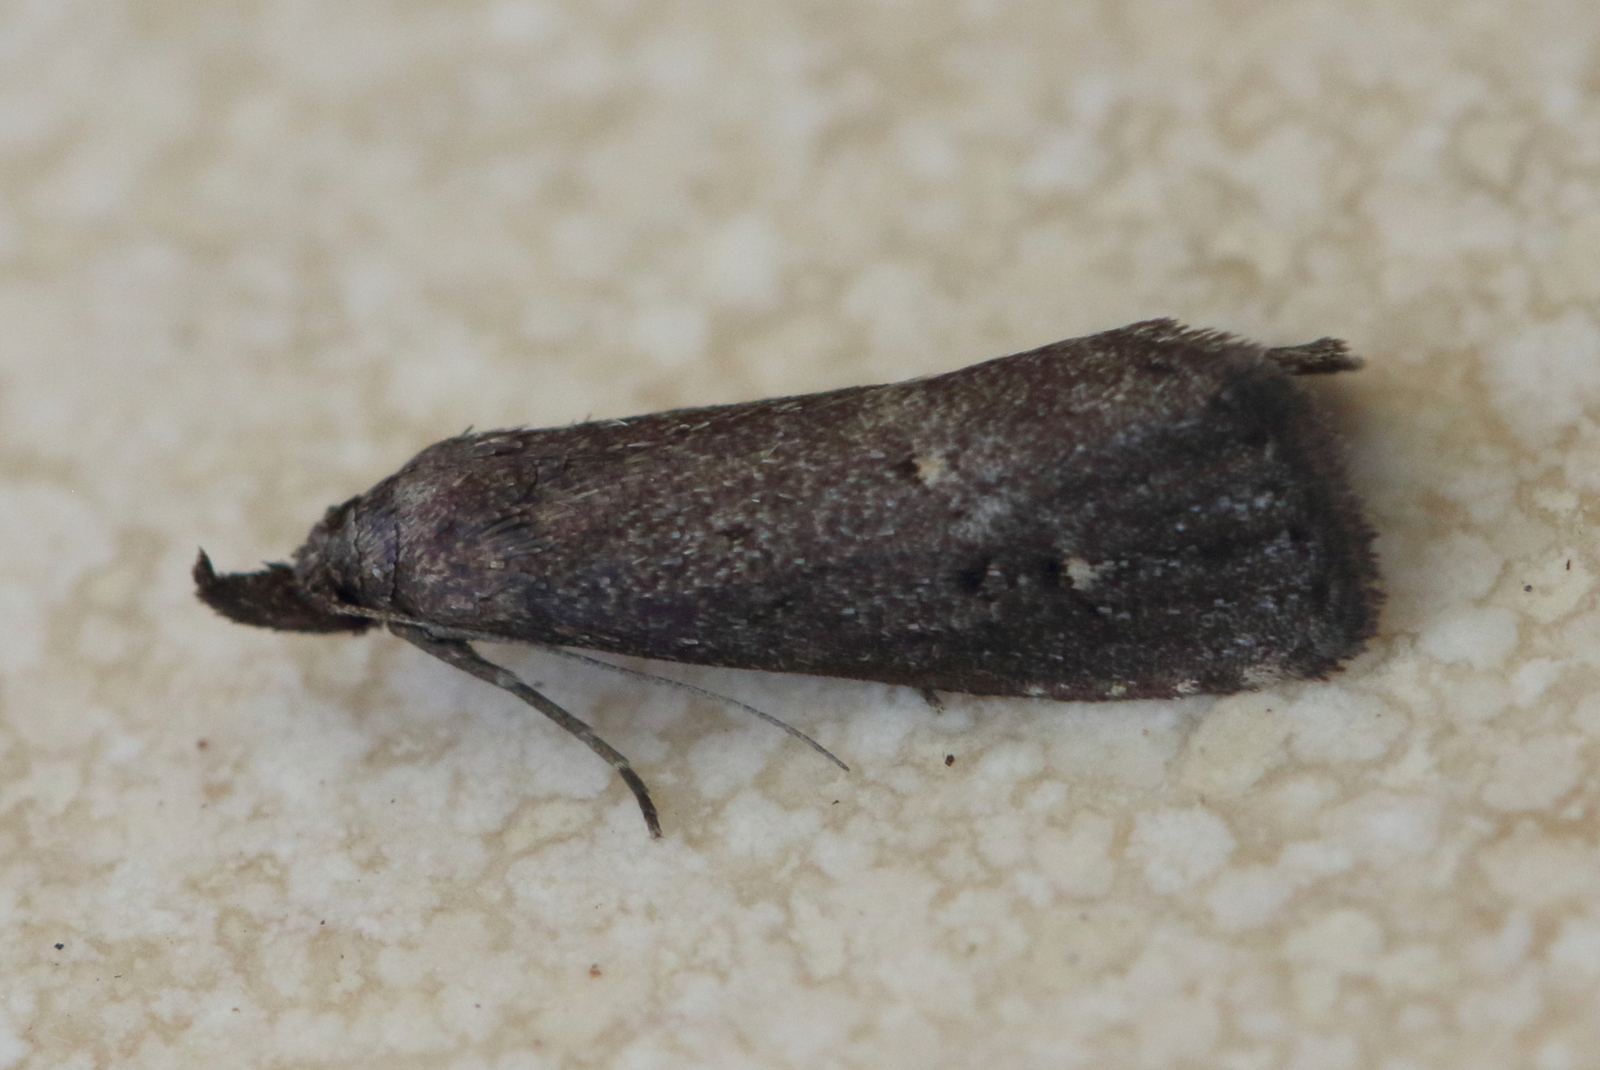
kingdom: Animalia
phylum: Arthropoda
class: Insecta
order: Lepidoptera
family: Erebidae
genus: Schrankia
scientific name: Schrankia capnophanes
